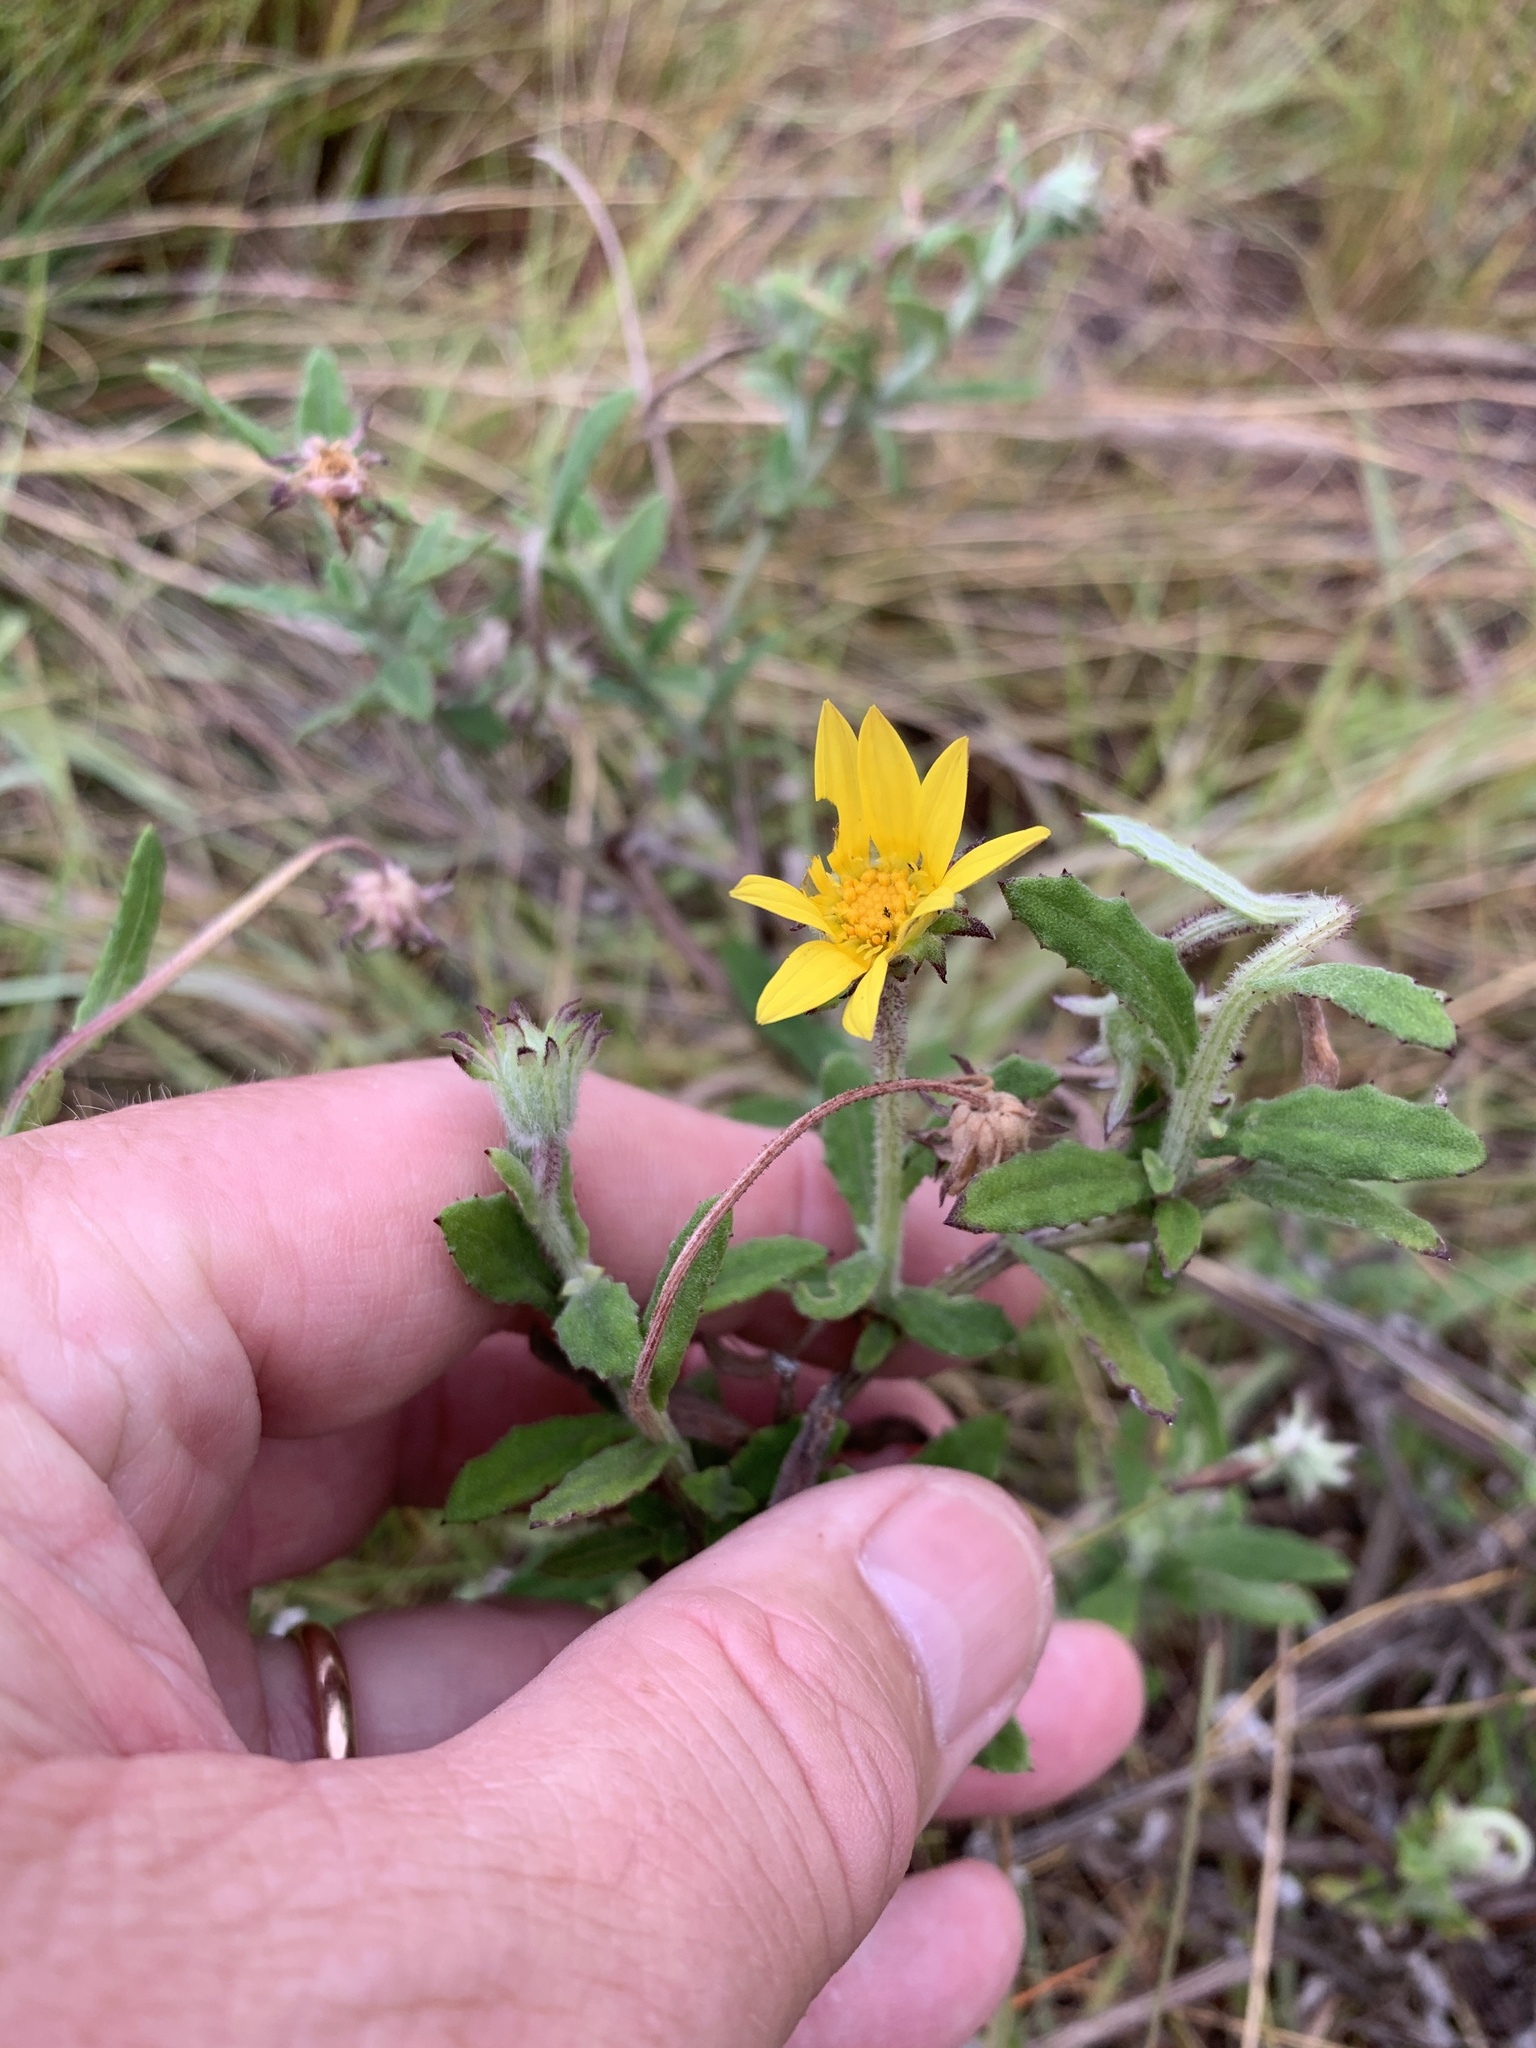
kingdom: Plantae
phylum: Tracheophyta
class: Magnoliopsida
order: Asterales
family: Asteraceae
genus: Arctotis
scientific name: Arctotis scabra
